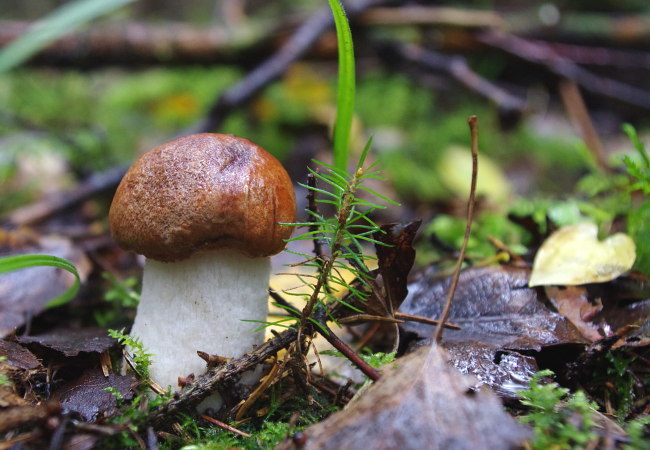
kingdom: Fungi
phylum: Basidiomycota
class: Agaricomycetes
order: Boletales
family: Boletaceae
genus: Leccinum
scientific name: Leccinum albostipitatum
